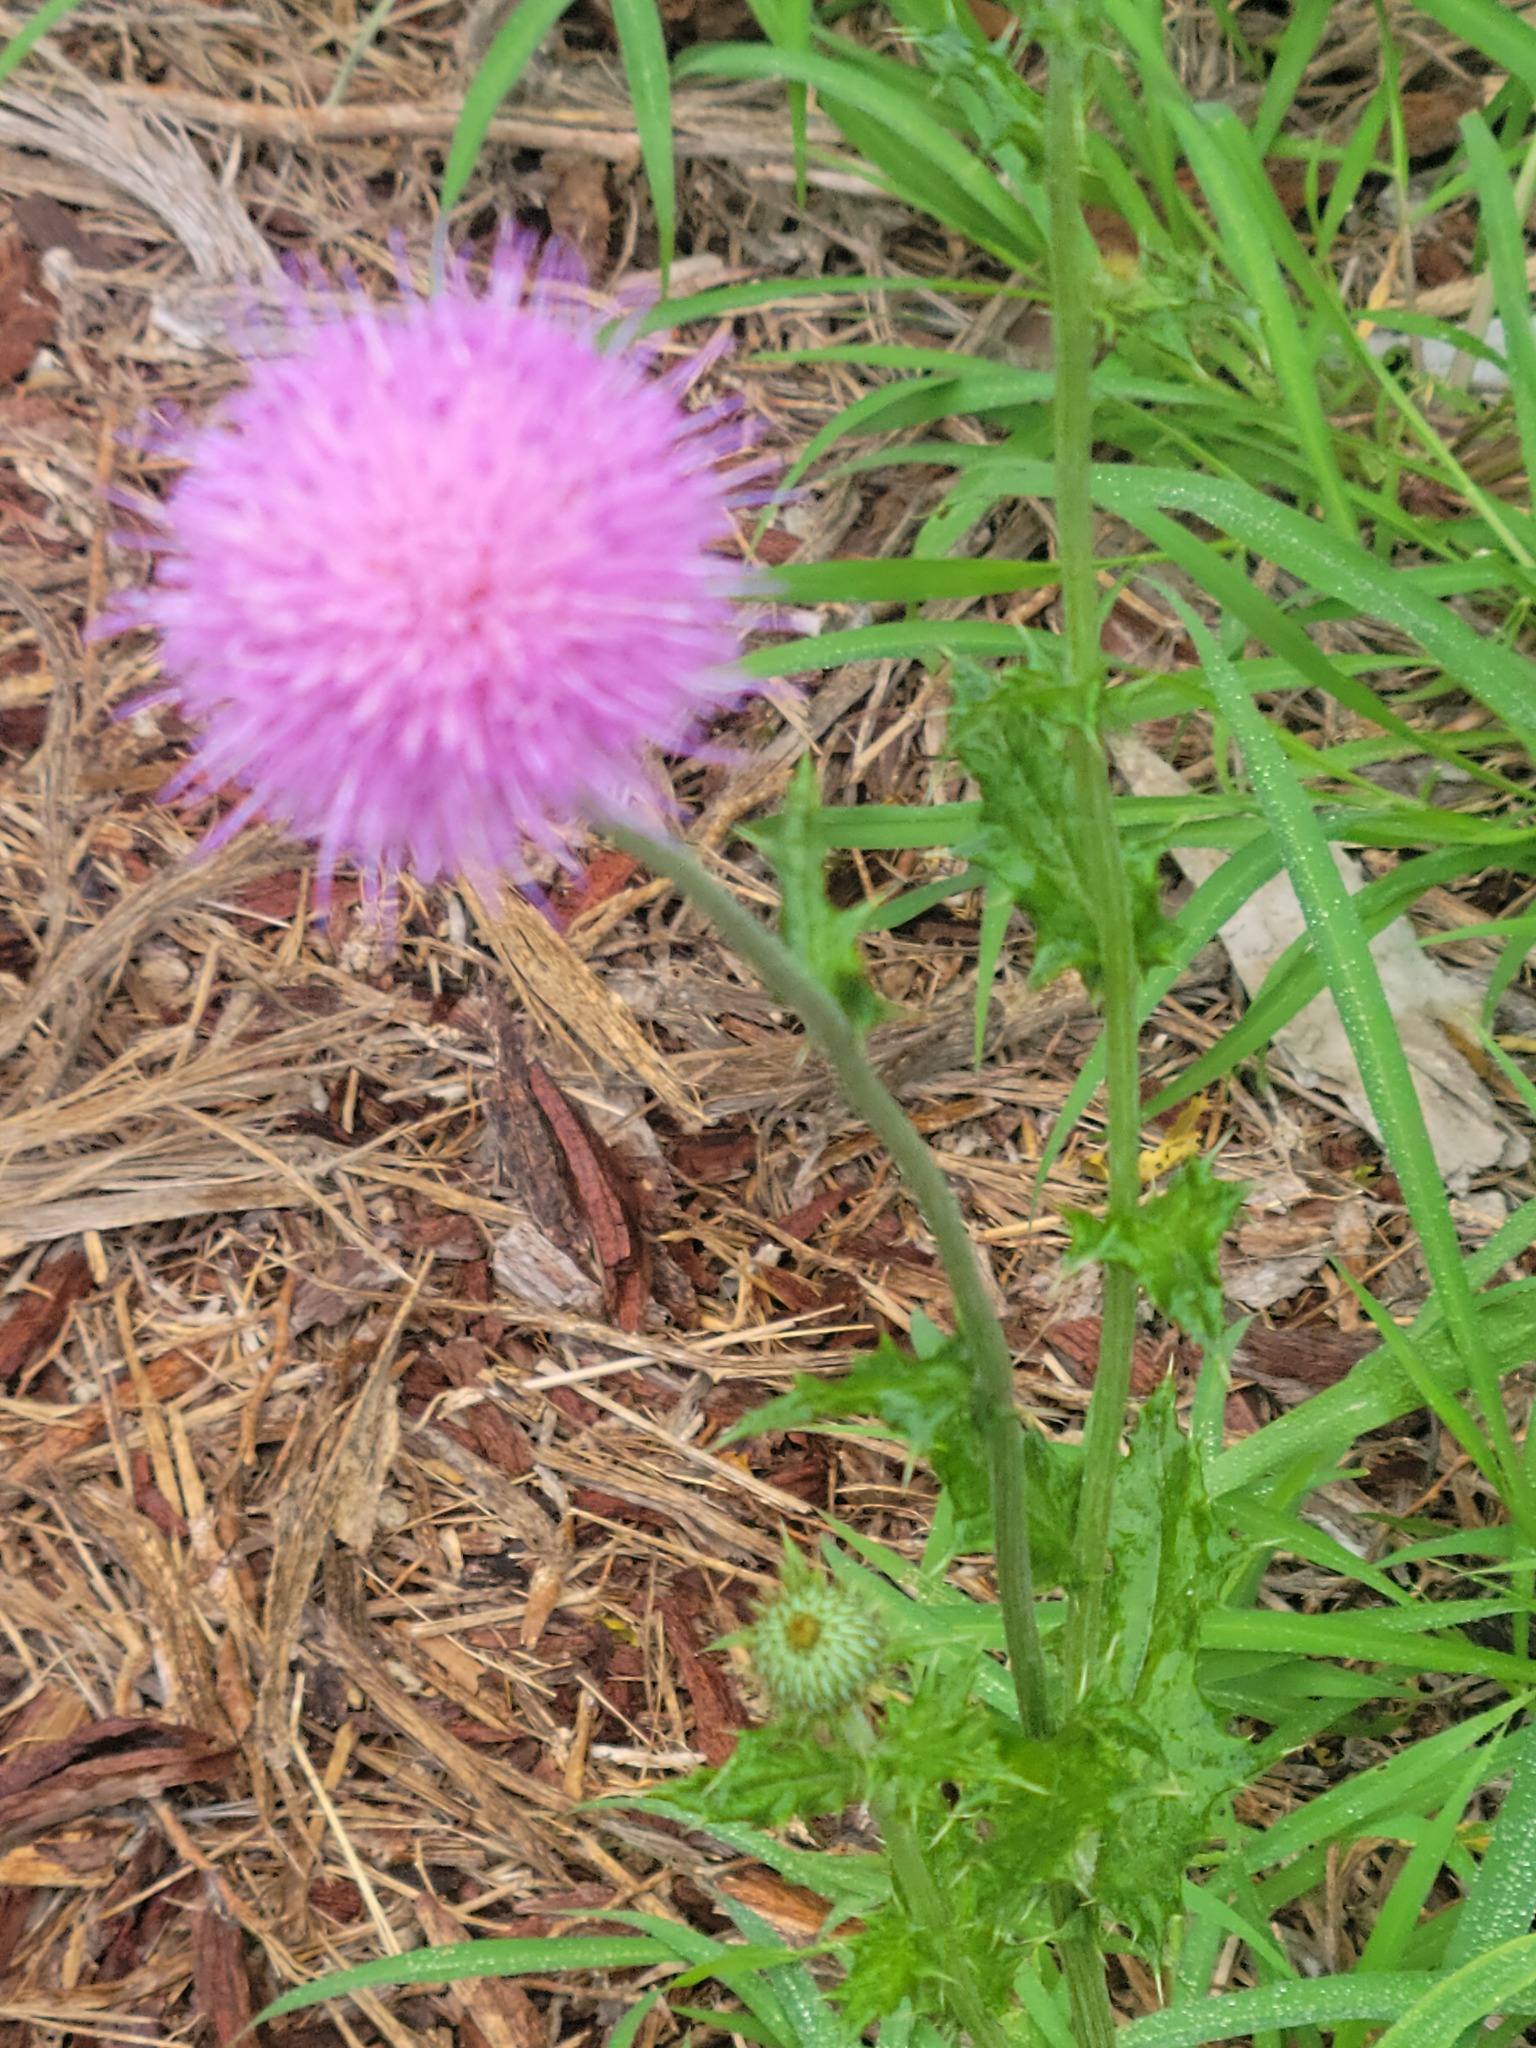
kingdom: Plantae
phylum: Tracheophyta
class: Magnoliopsida
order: Asterales
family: Asteraceae
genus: Cirsium
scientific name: Cirsium texanum
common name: Texas purple thistle
